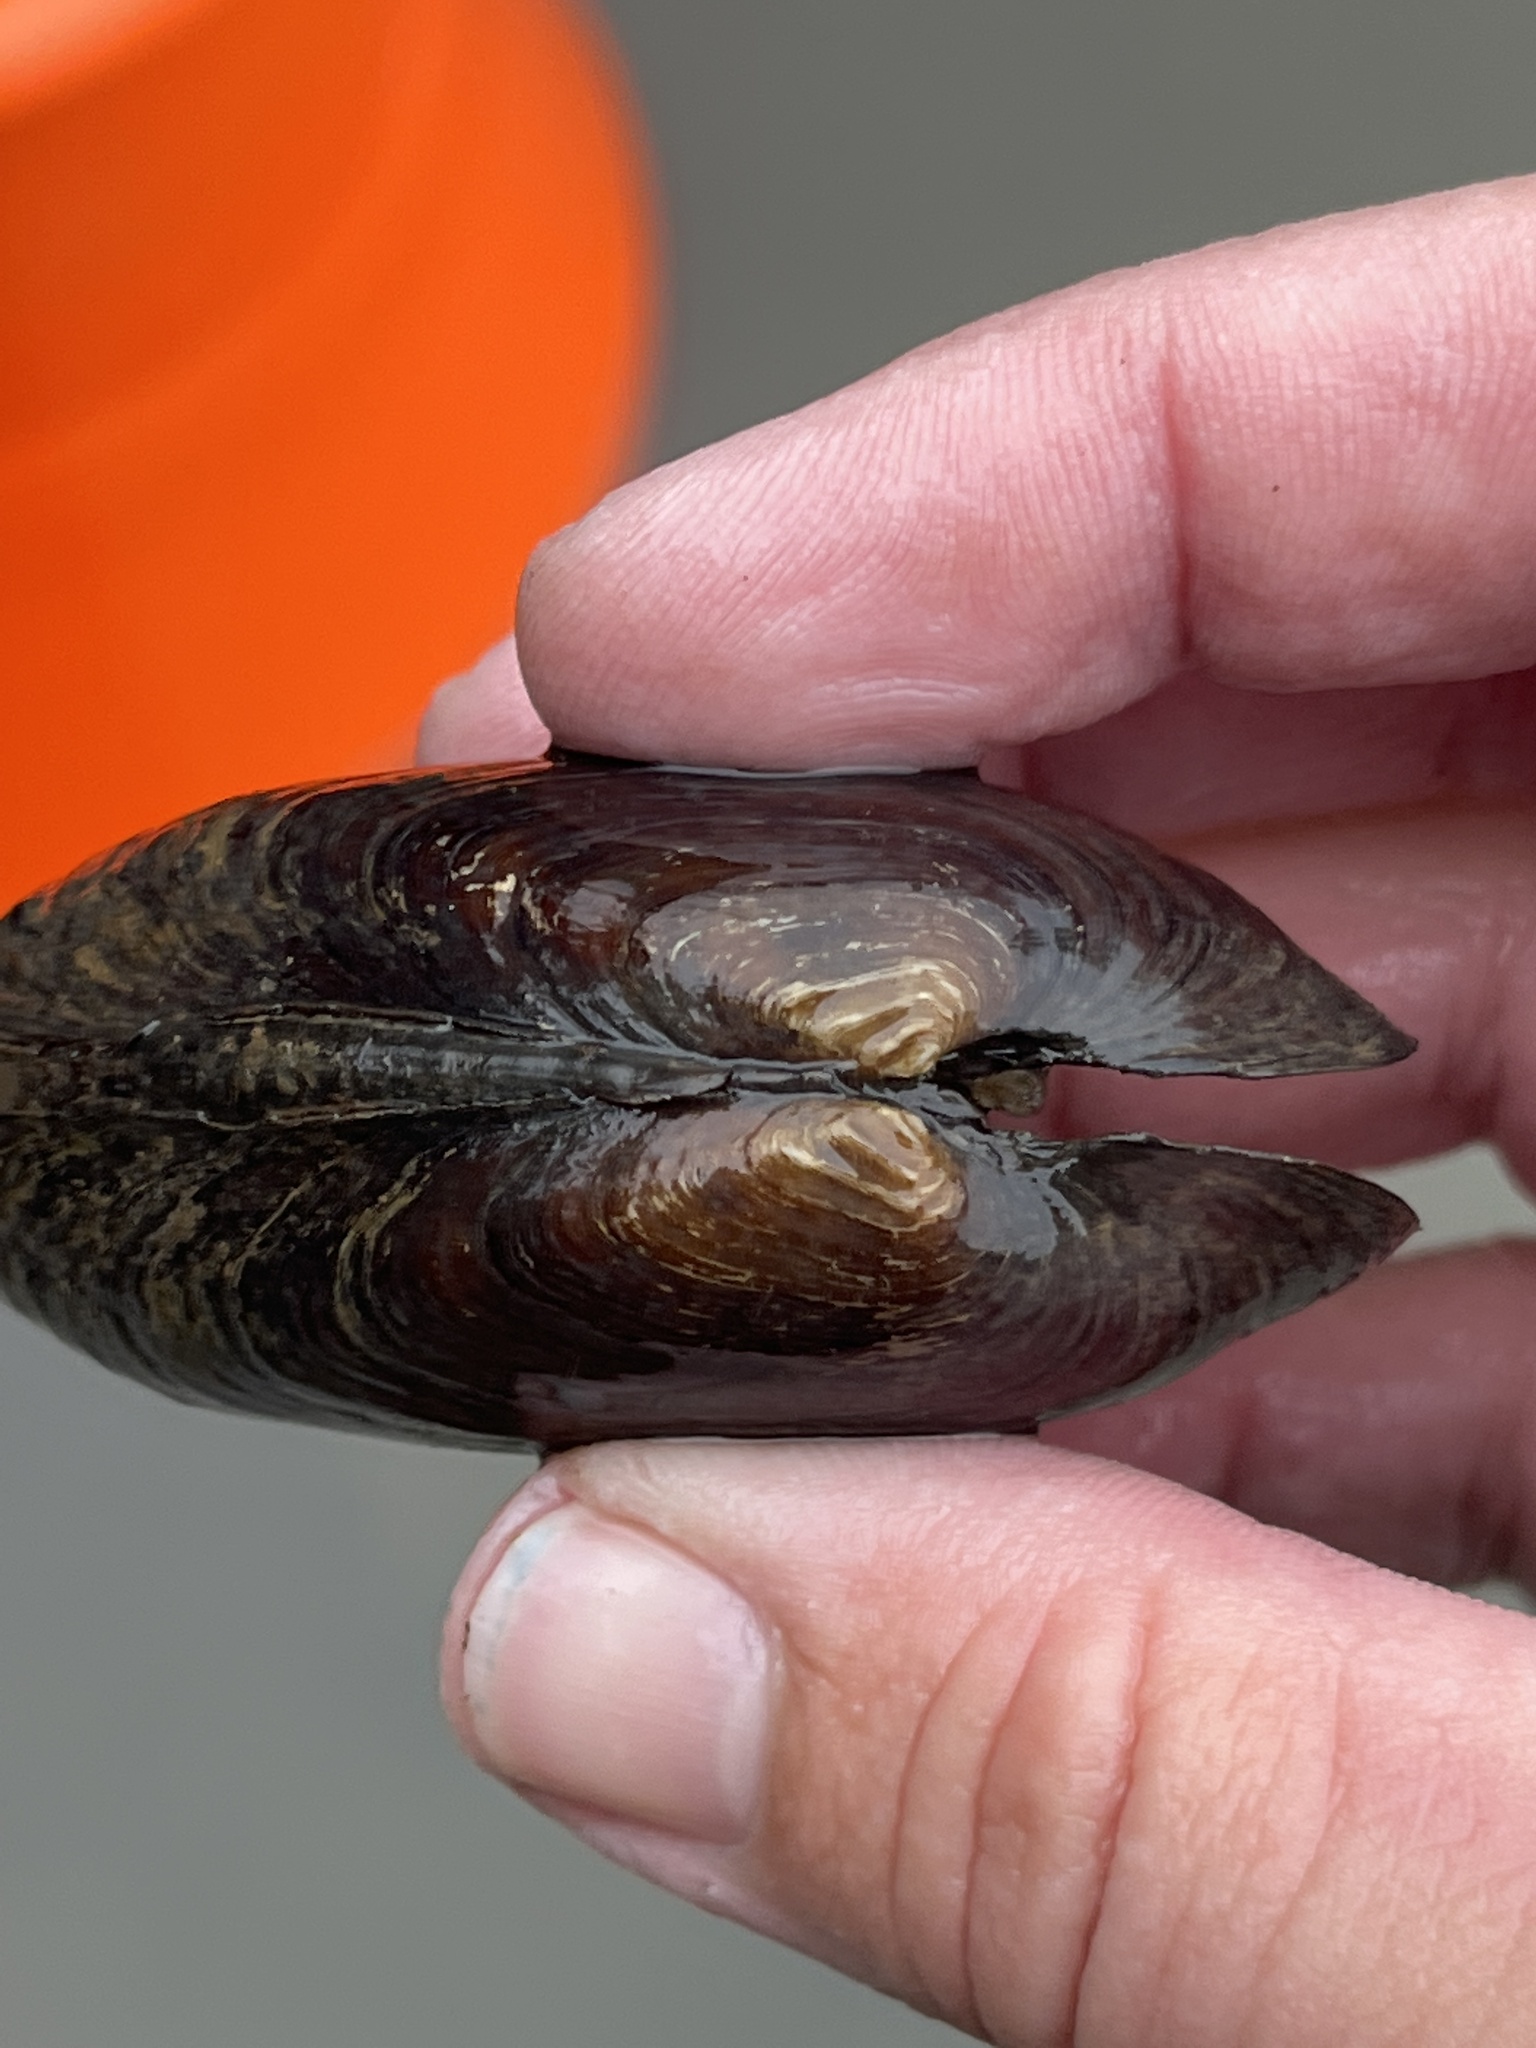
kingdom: Animalia
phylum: Mollusca
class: Bivalvia
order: Unionida
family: Unionidae
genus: Eurynia
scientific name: Eurynia dilatata
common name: Spike
